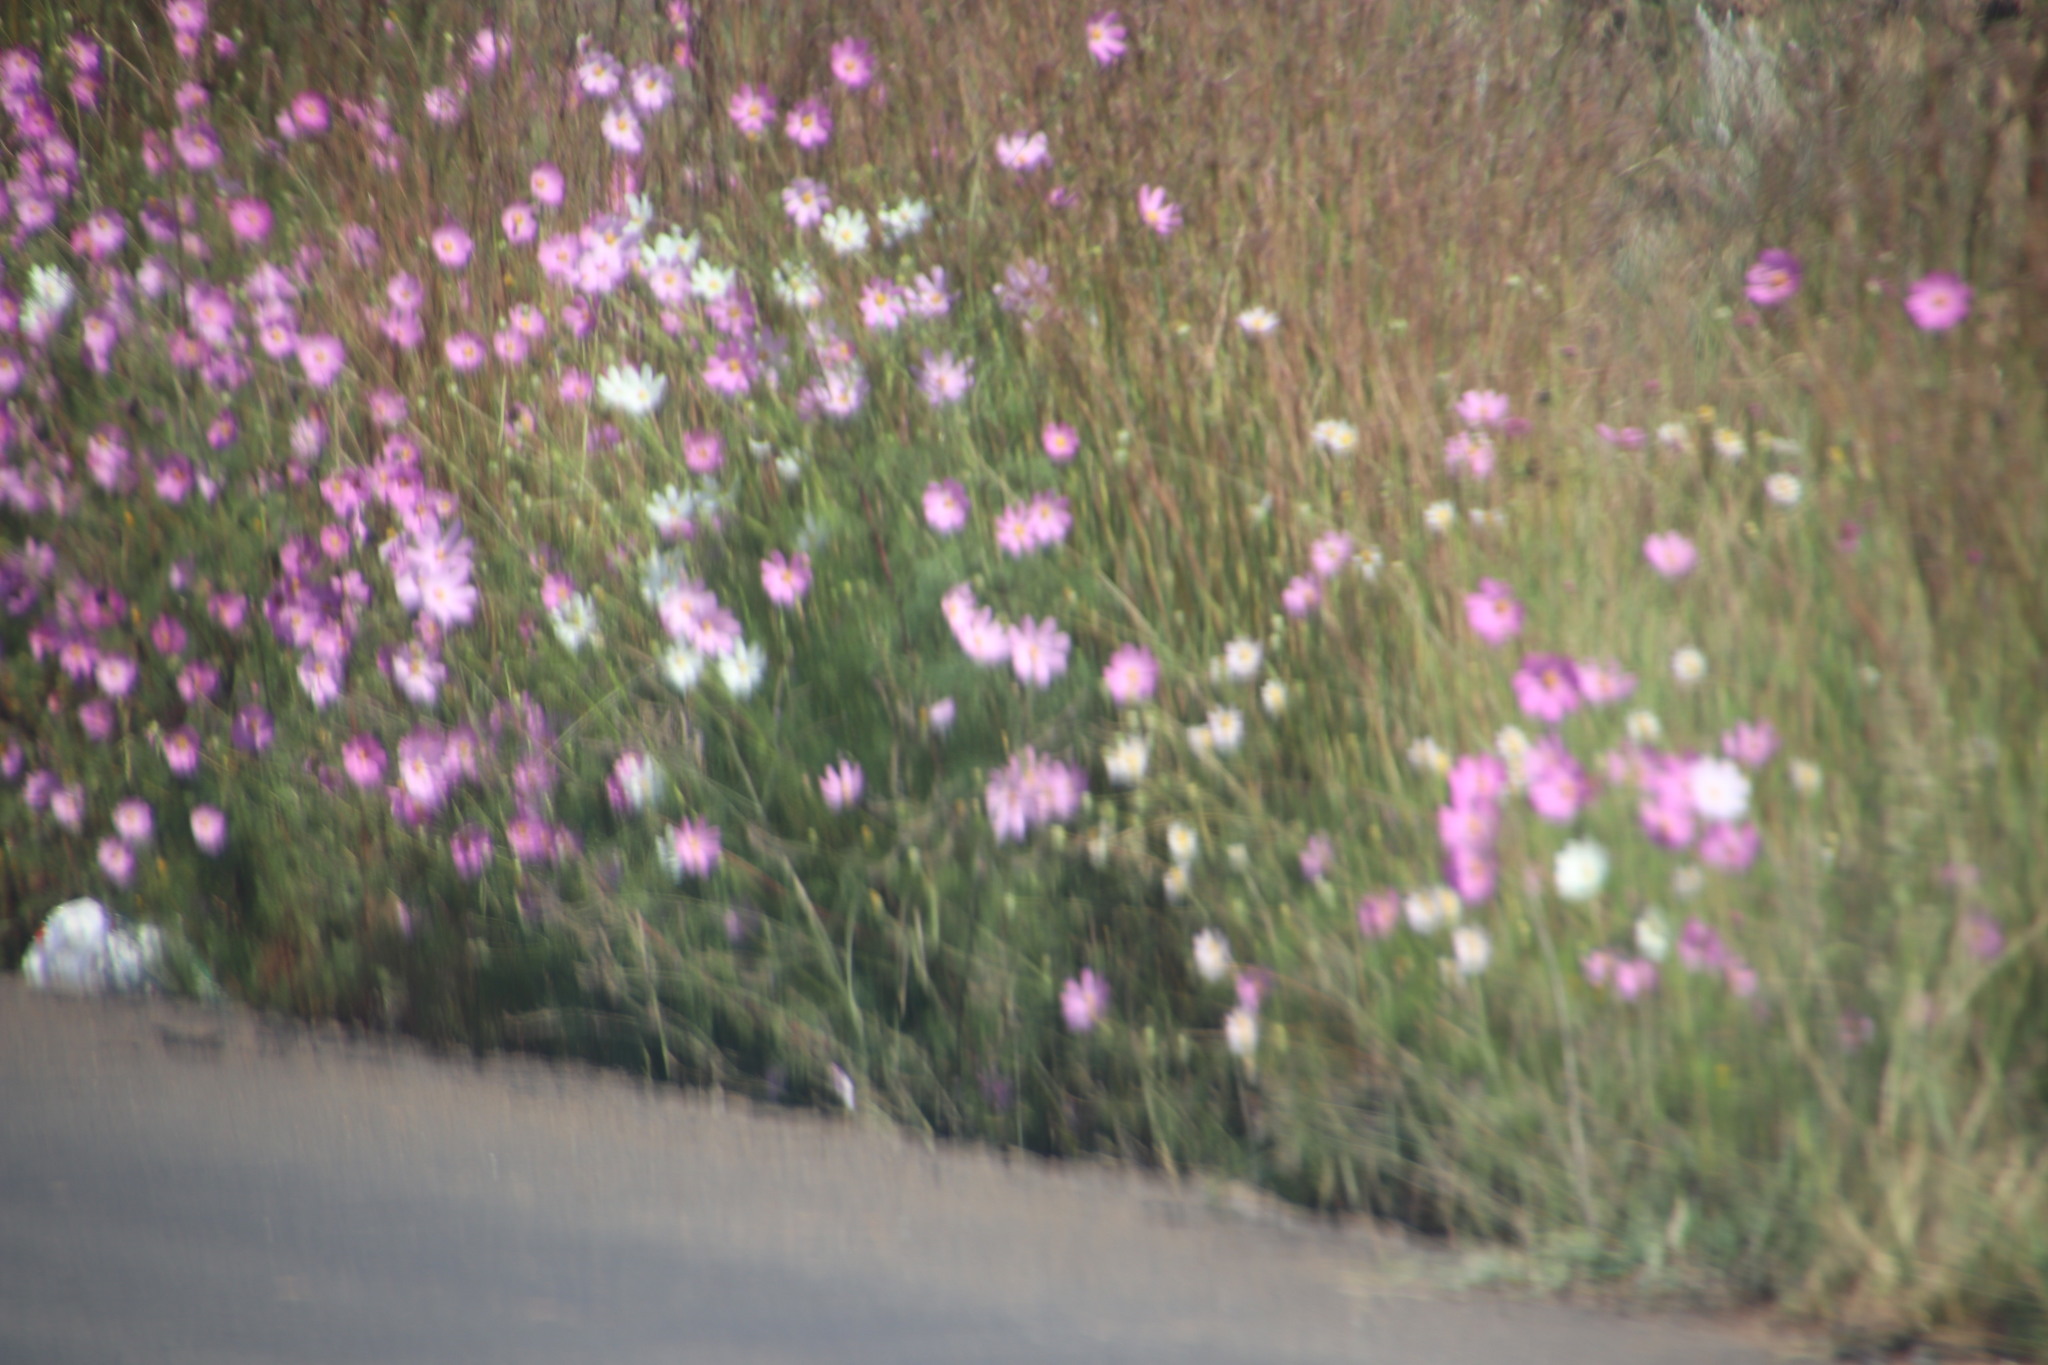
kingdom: Plantae
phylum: Tracheophyta
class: Magnoliopsida
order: Asterales
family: Asteraceae
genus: Cosmos
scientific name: Cosmos bipinnatus
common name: Garden cosmos
